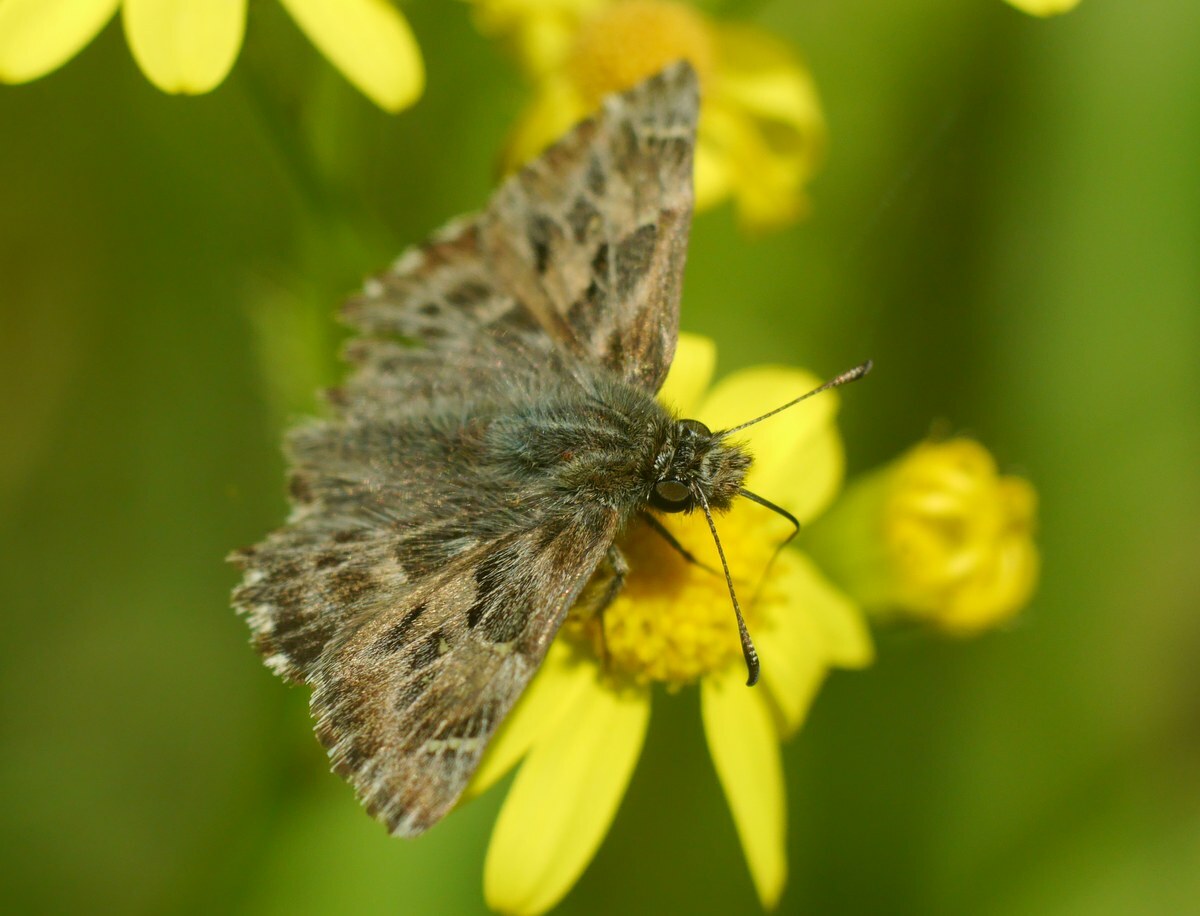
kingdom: Animalia
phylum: Arthropoda
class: Insecta
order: Lepidoptera
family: Hesperiidae
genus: Carcharodus
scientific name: Carcharodus alceae
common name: Mallow skipper
